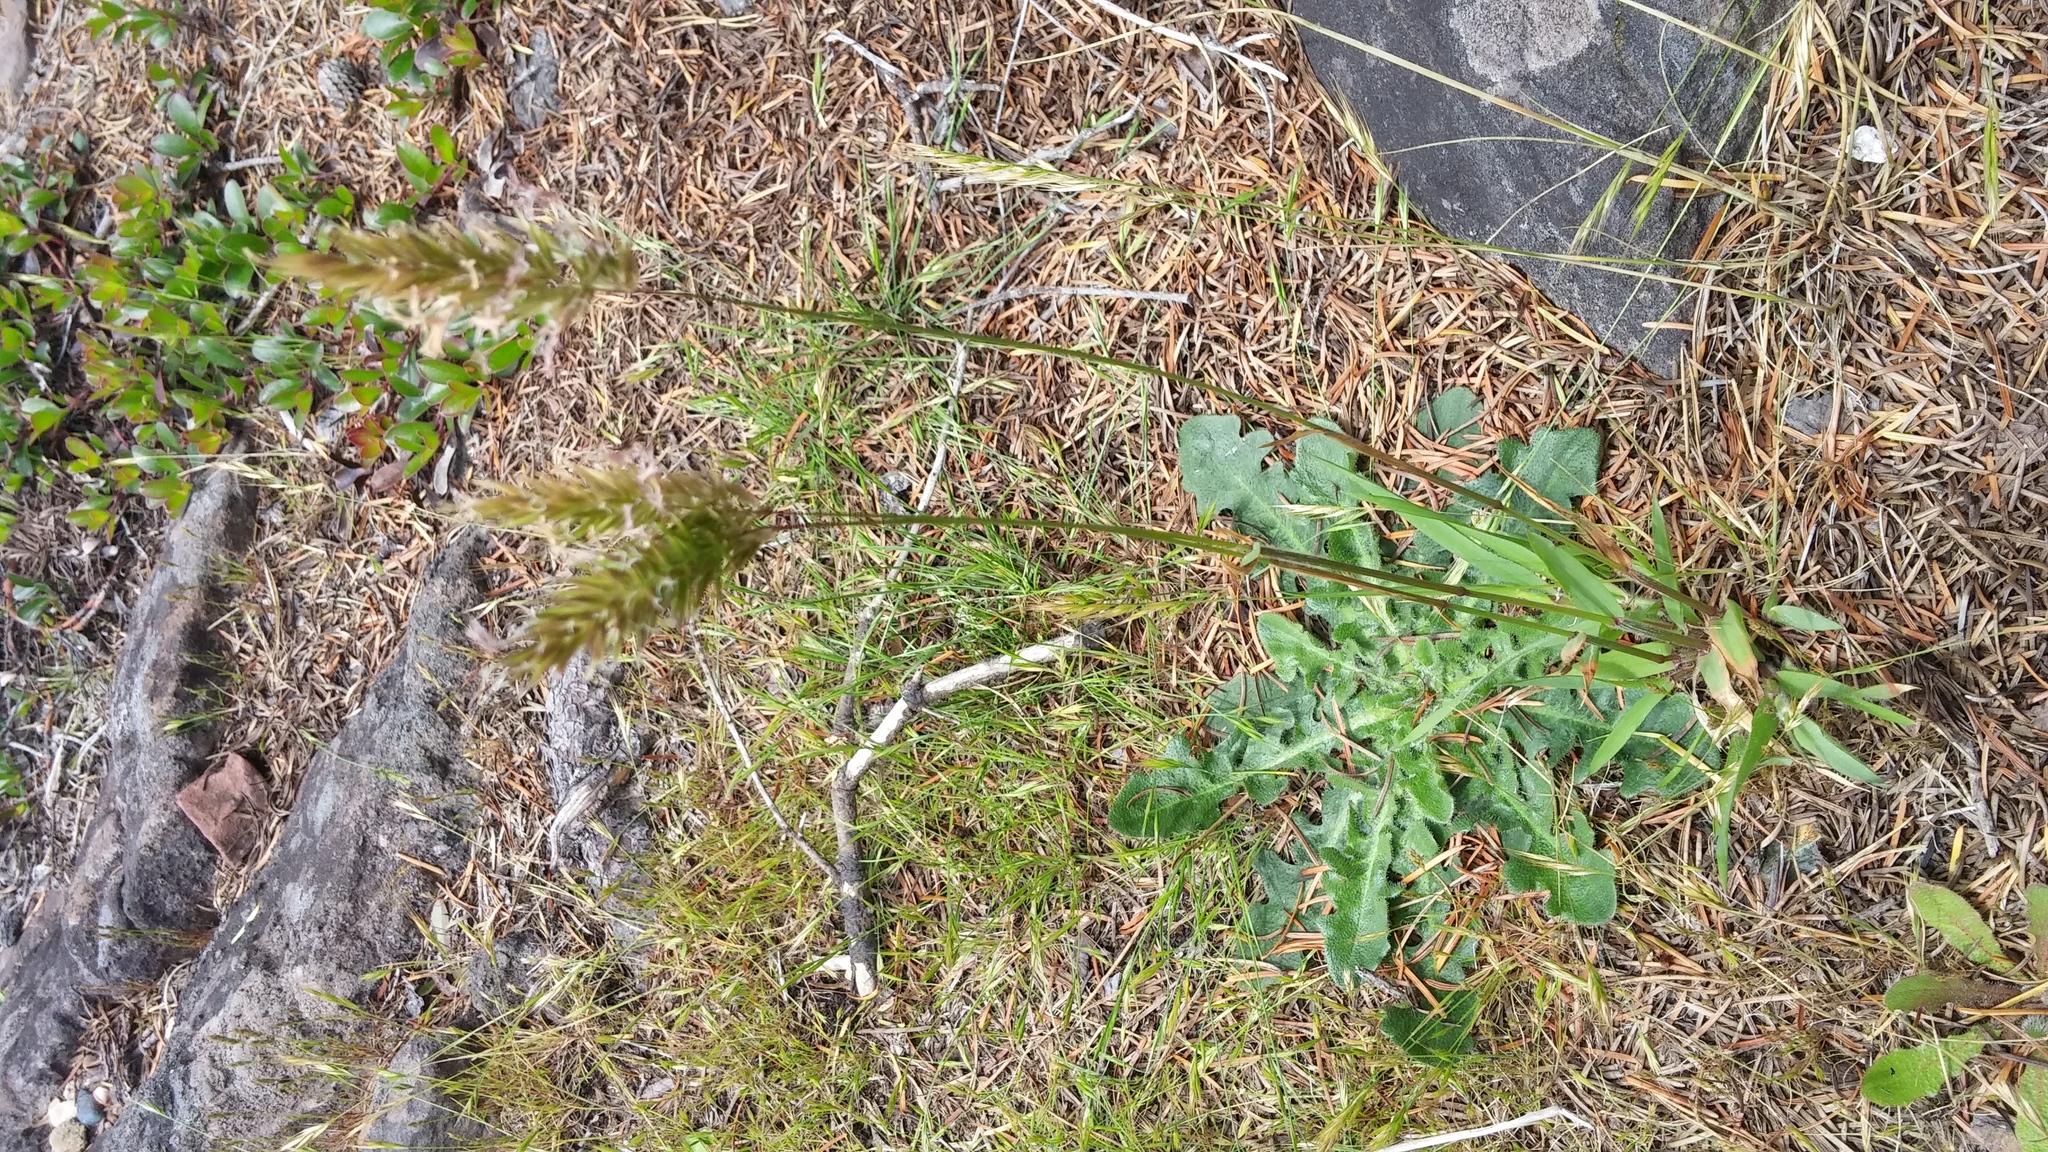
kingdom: Plantae
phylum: Tracheophyta
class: Liliopsida
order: Poales
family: Poaceae
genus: Anthoxanthum
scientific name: Anthoxanthum odoratum
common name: Sweet vernalgrass
